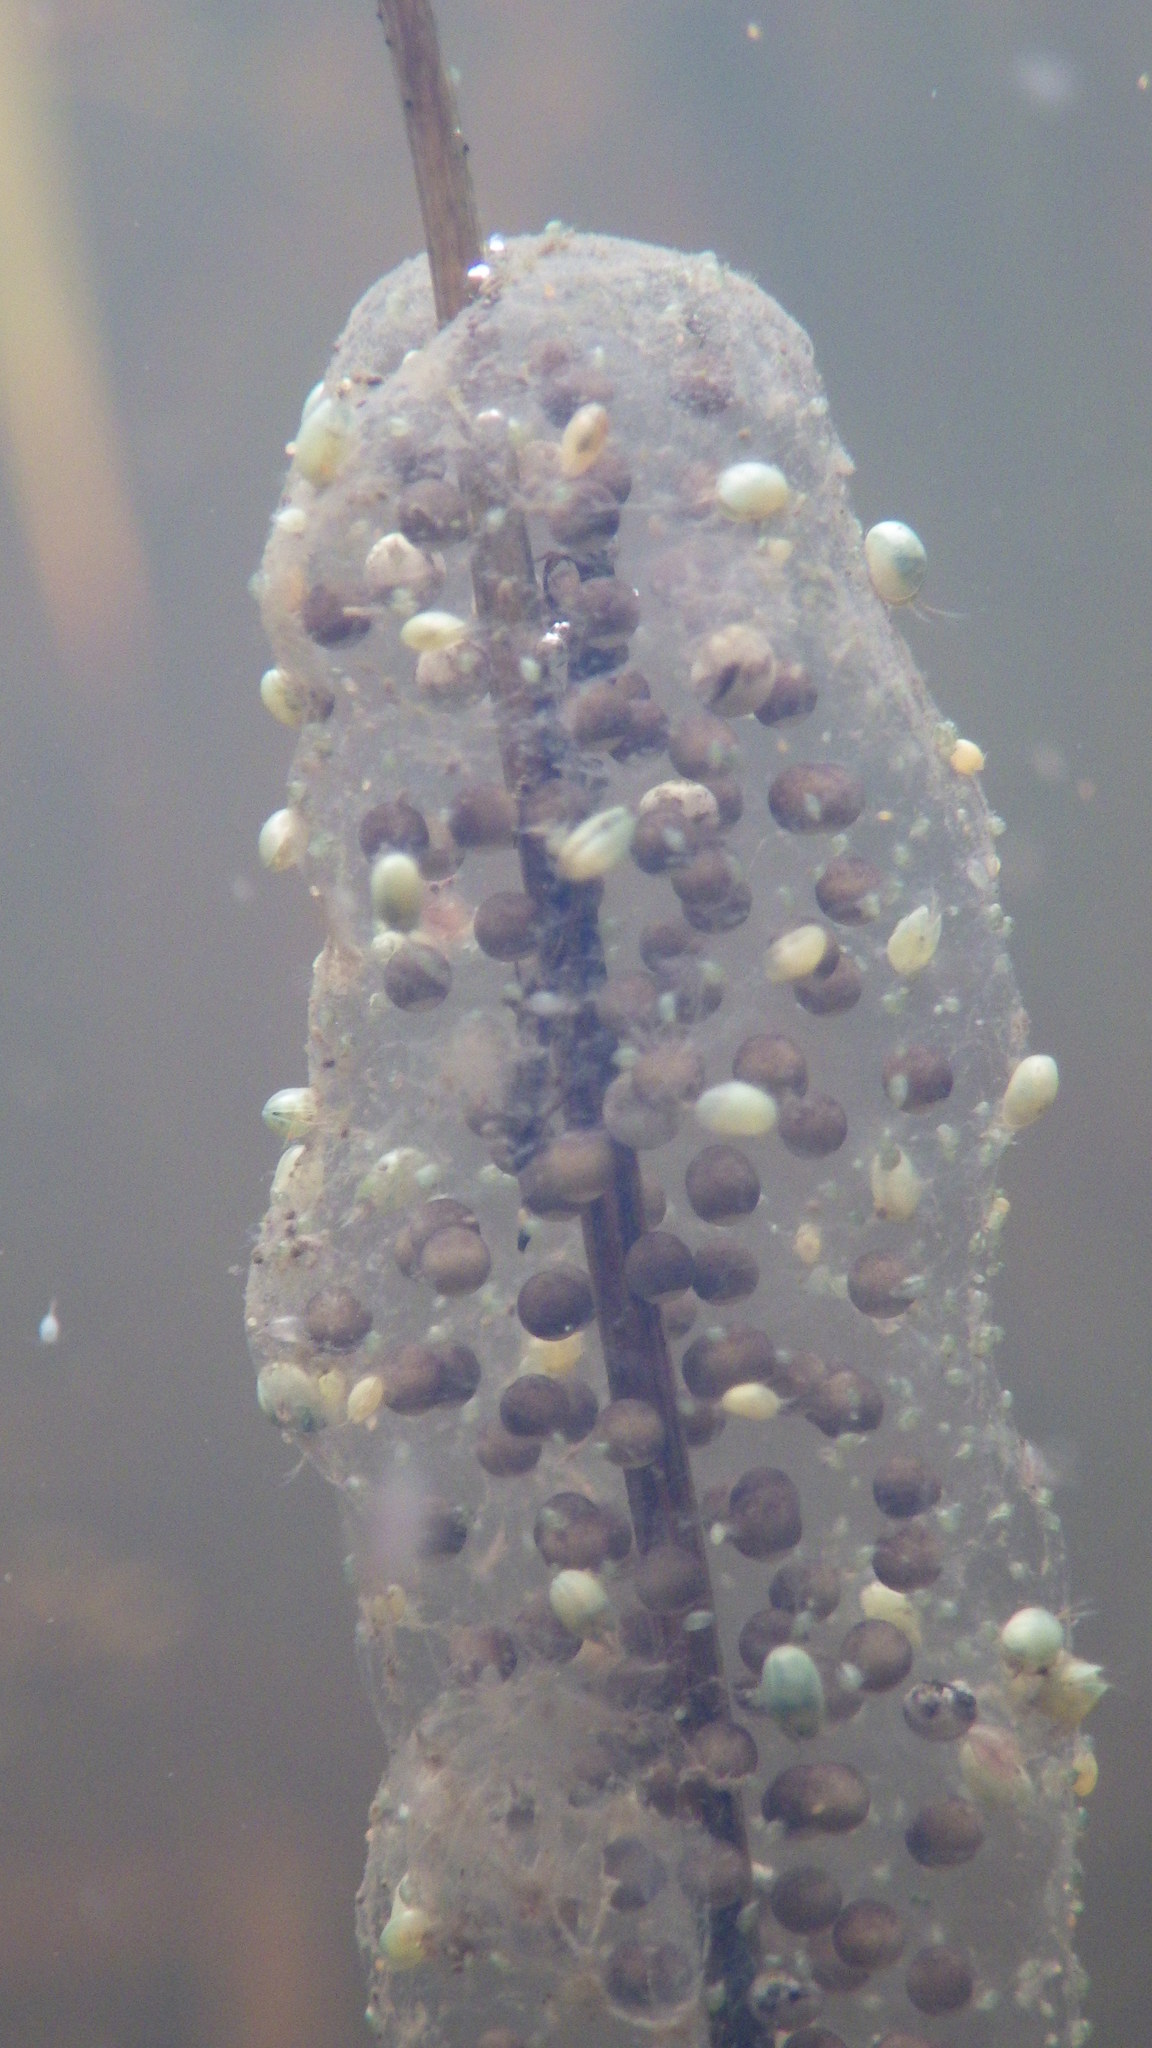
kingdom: Animalia
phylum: Chordata
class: Amphibia
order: Anura
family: Hylidae
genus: Pseudacris
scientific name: Pseudacris regilla
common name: Pacific chorus frog
